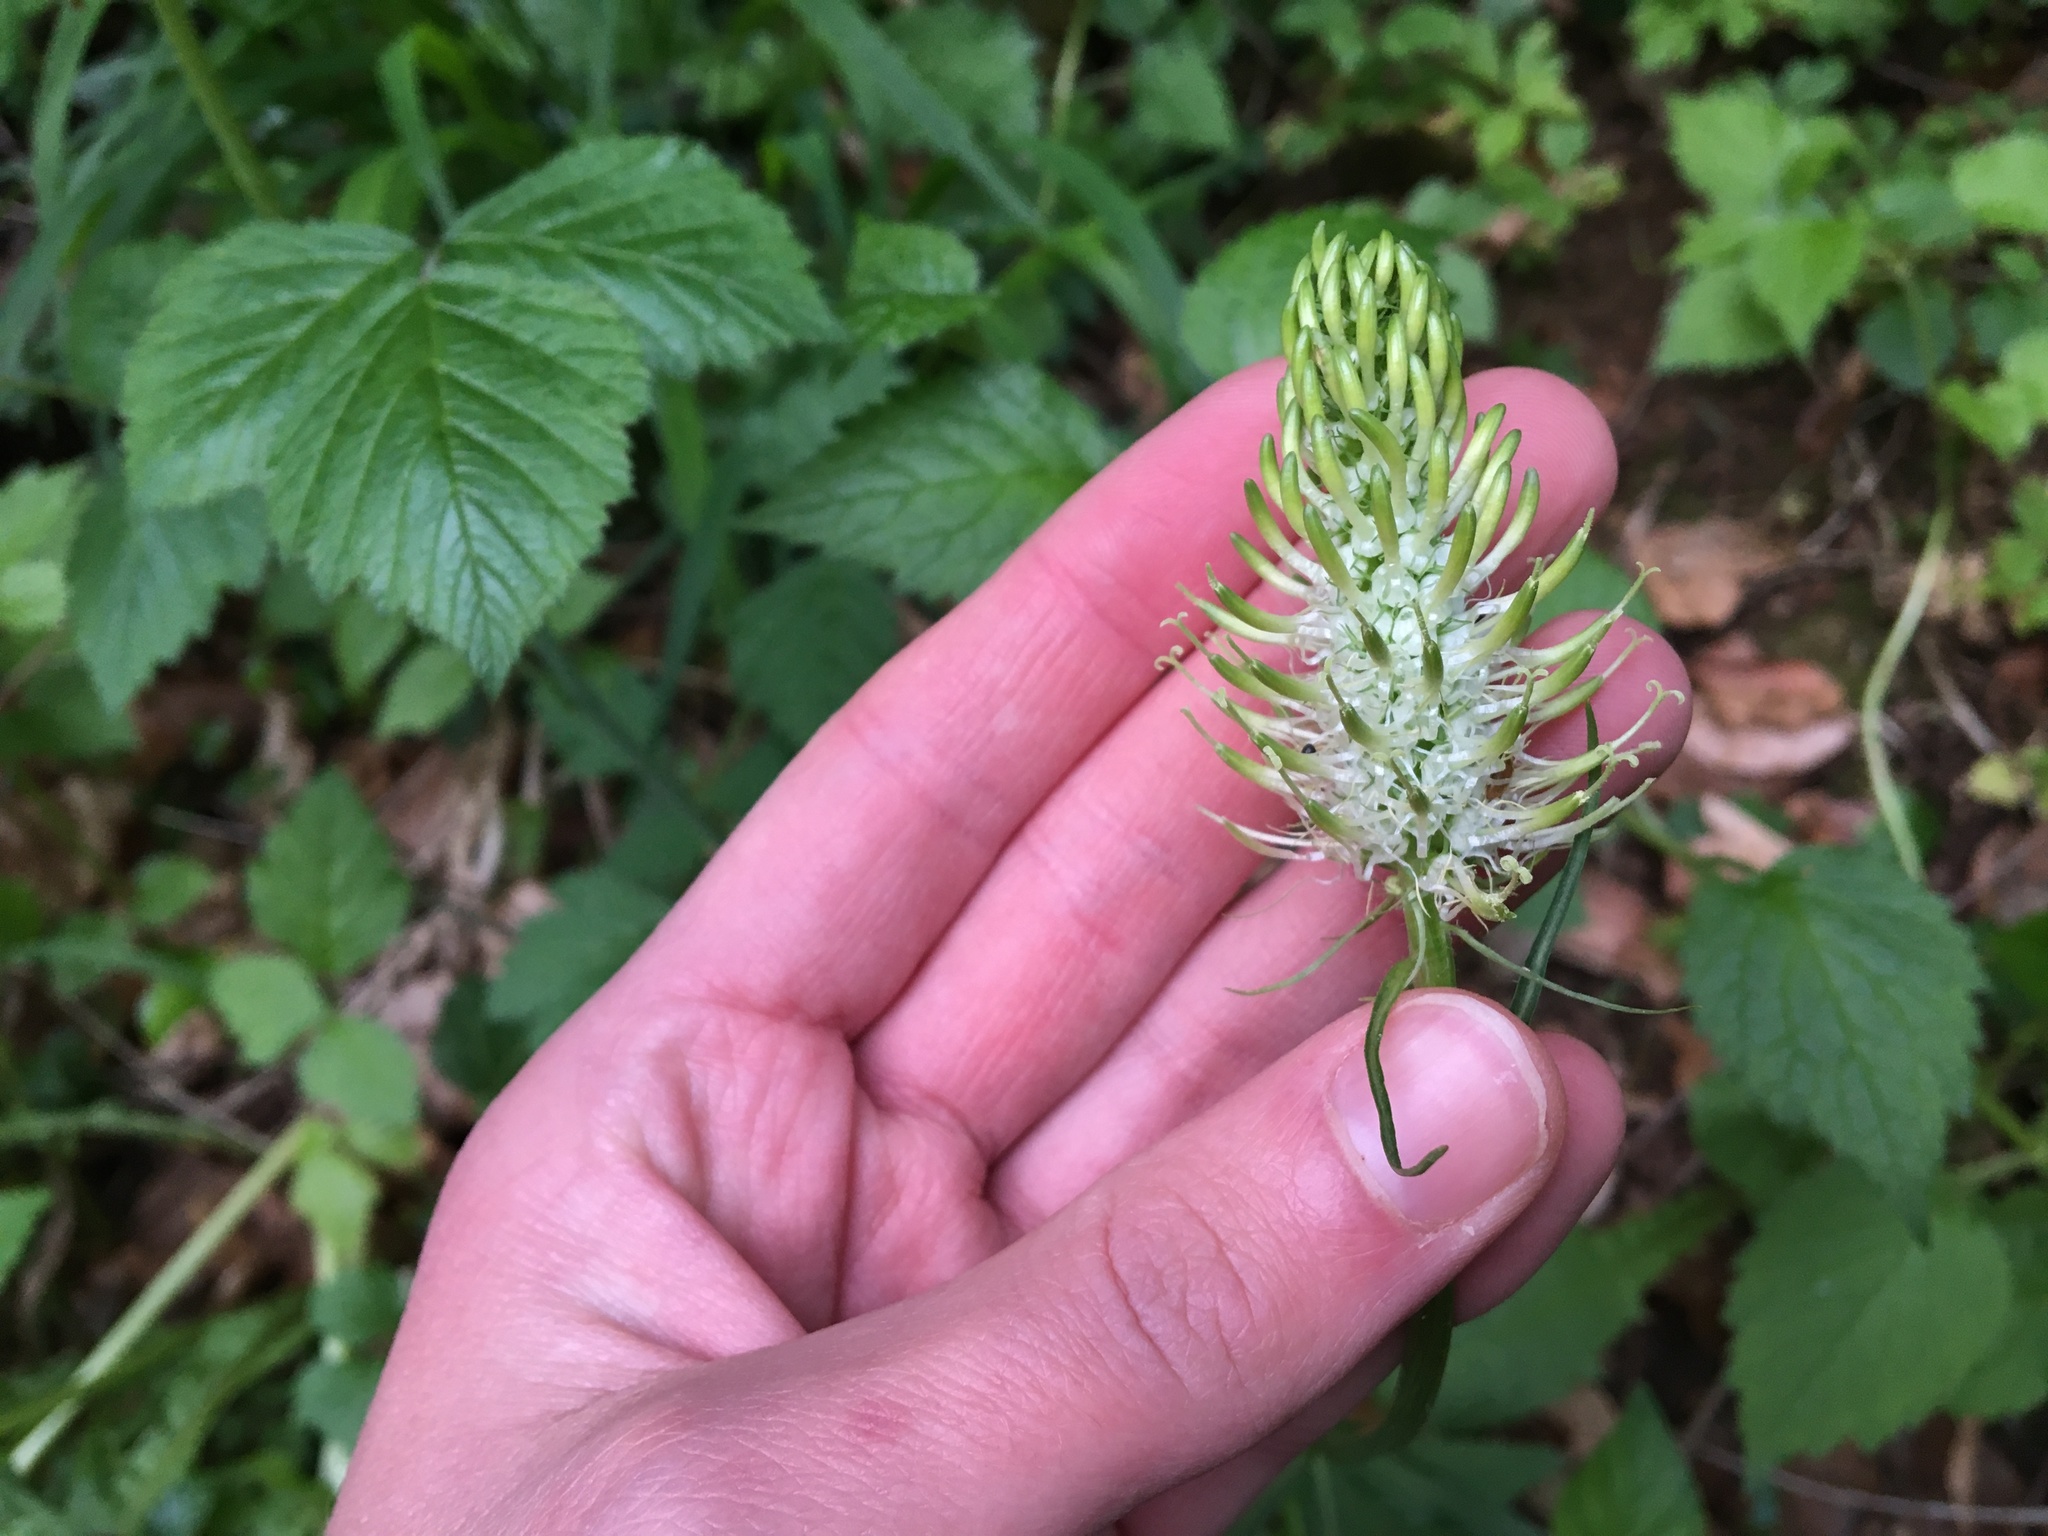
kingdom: Plantae
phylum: Tracheophyta
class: Magnoliopsida
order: Asterales
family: Campanulaceae
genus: Phyteuma
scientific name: Phyteuma spicatum
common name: Spiked rampion
